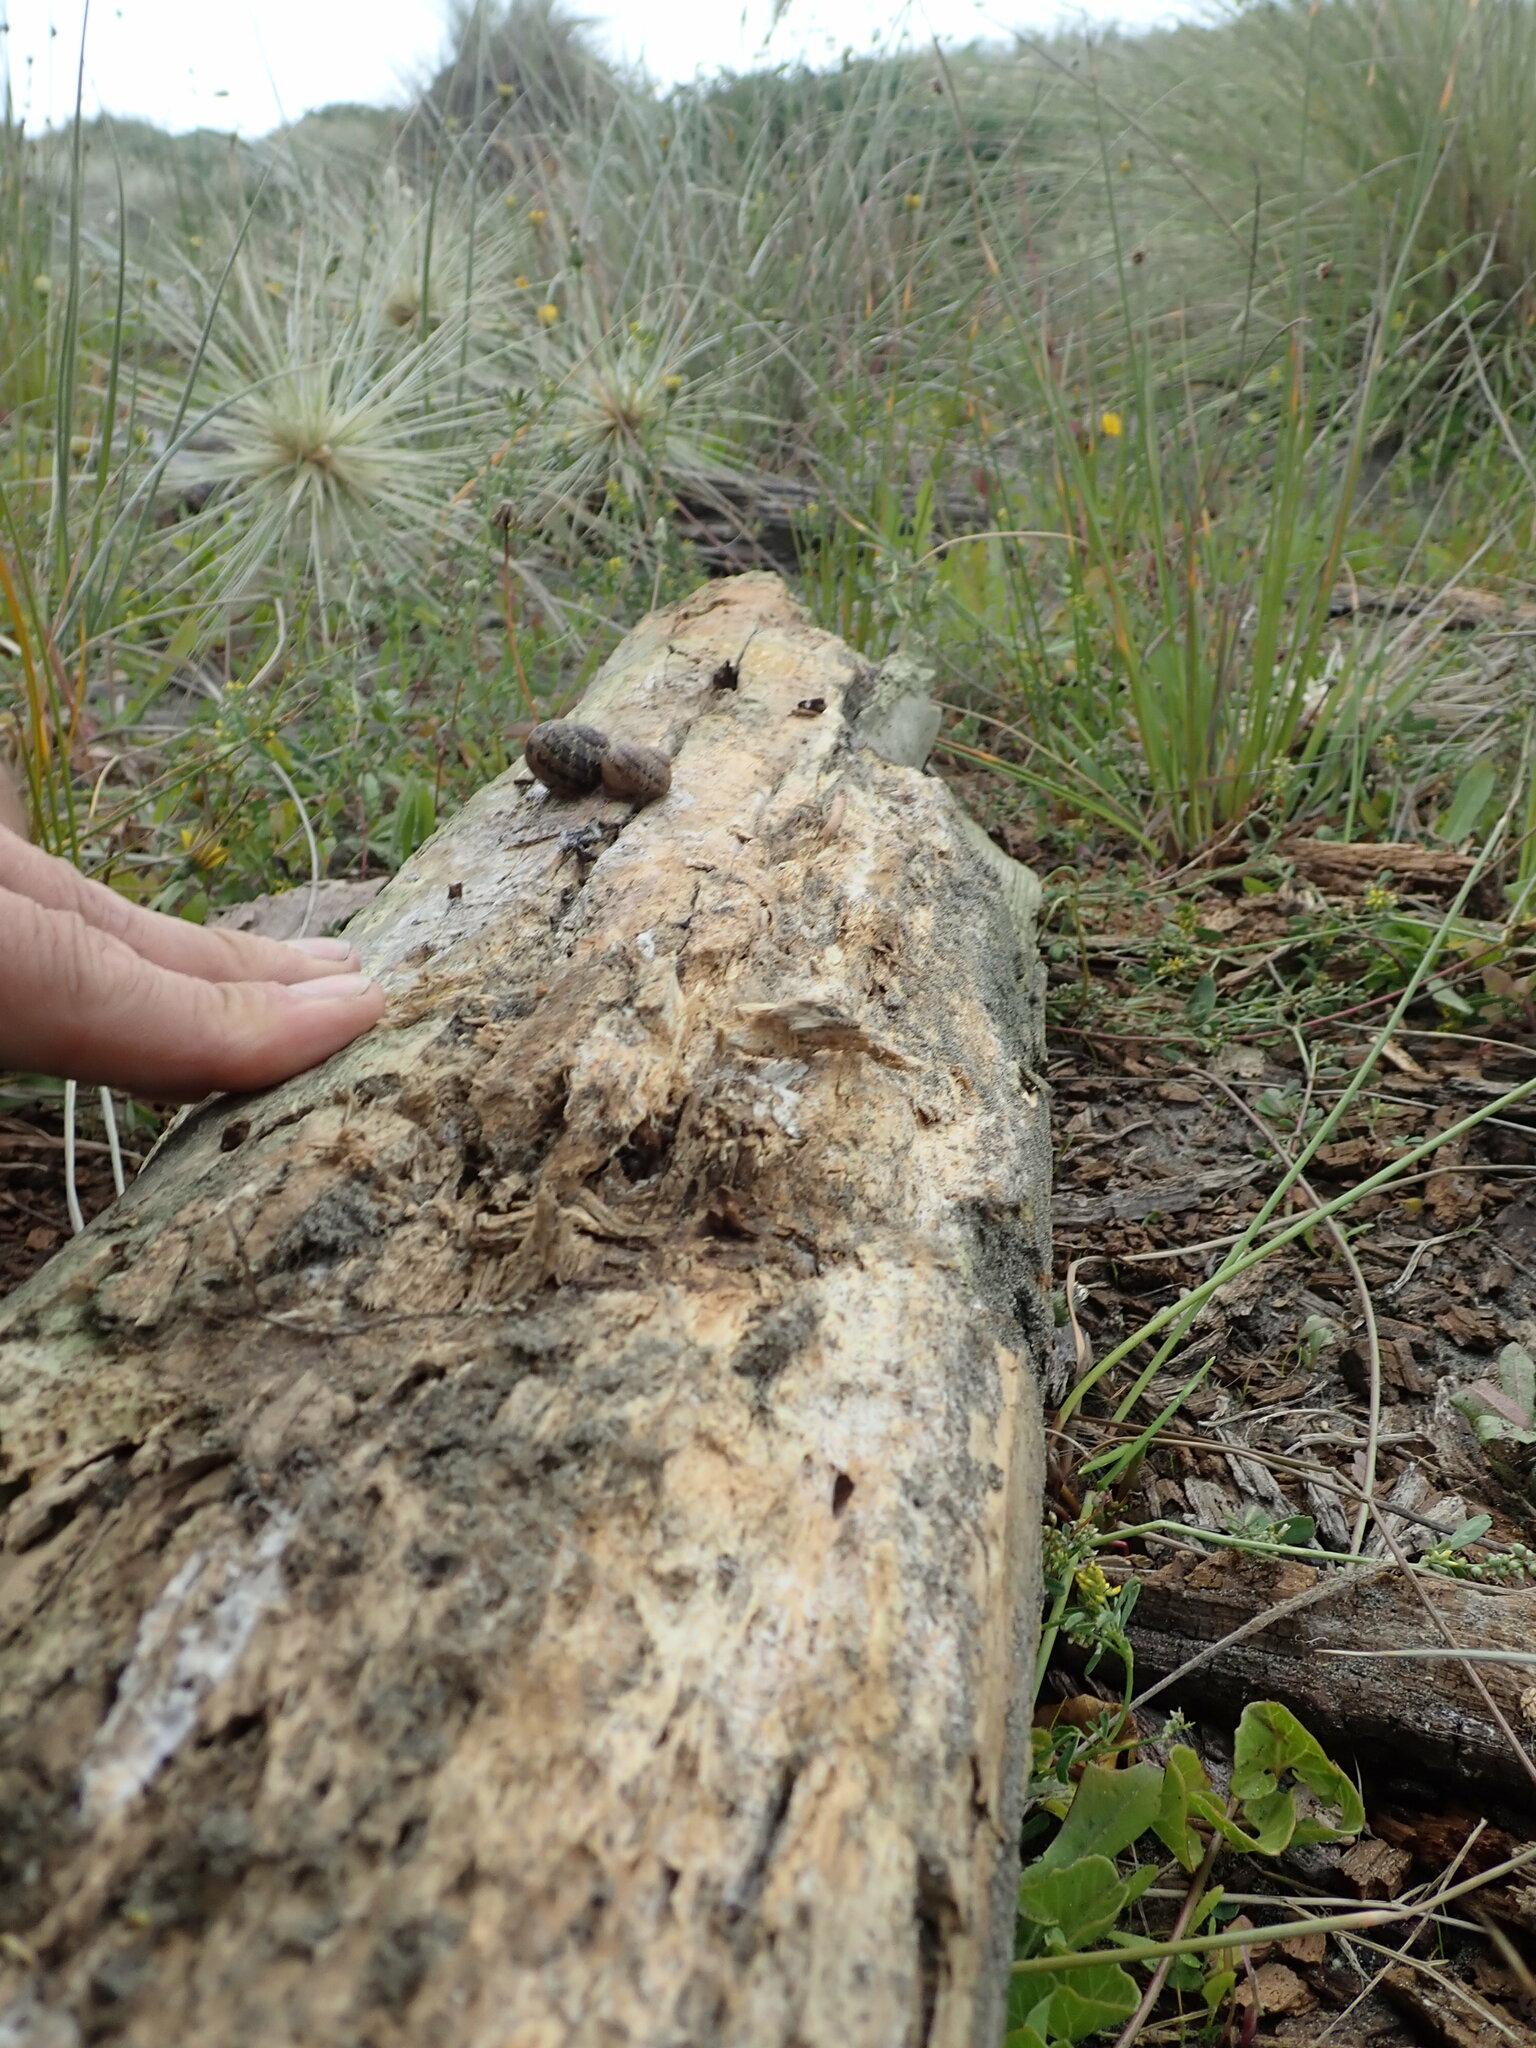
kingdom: Animalia
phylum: Arthropoda
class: Insecta
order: Dermaptera
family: Anisolabididae
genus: Anisolabis
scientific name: Anisolabis littorea
